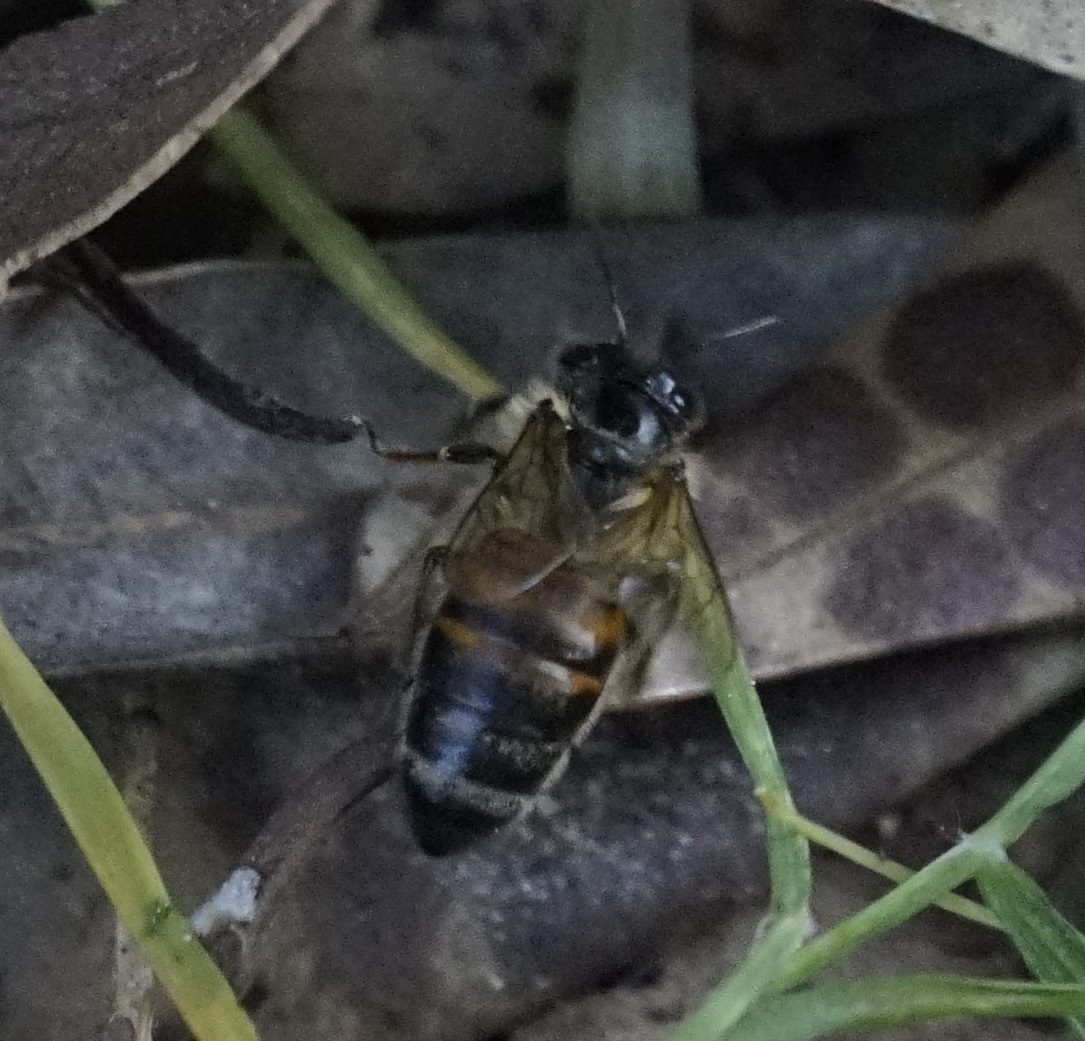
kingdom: Animalia
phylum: Arthropoda
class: Insecta
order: Hymenoptera
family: Apidae
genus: Apis
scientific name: Apis mellifera
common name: Honey bee
